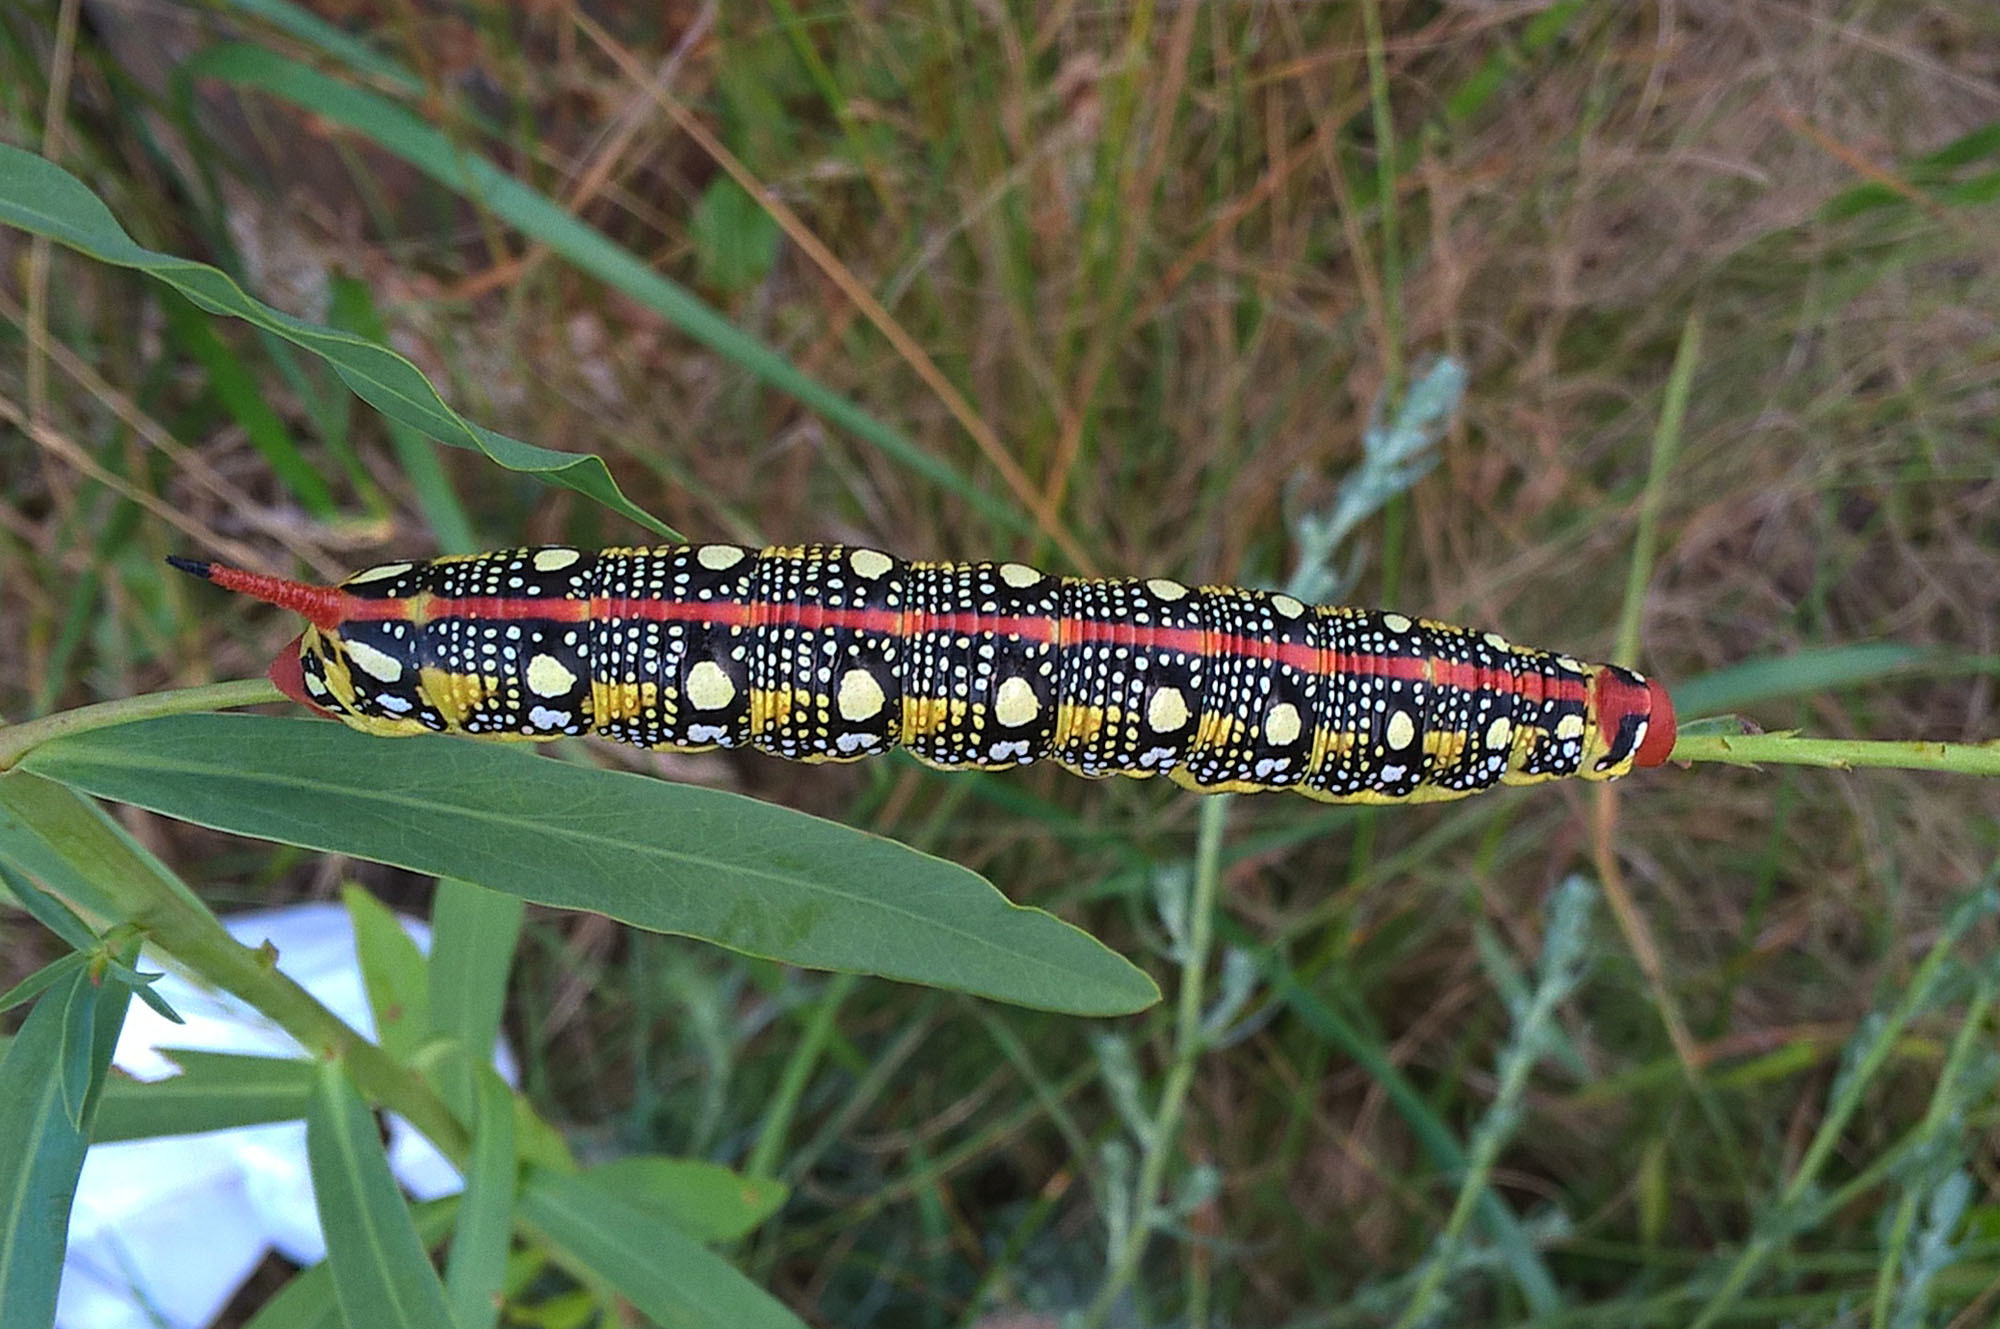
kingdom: Animalia
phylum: Arthropoda
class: Insecta
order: Lepidoptera
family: Sphingidae
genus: Hyles
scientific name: Hyles euphorbiae
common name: Spurge hawk-moth
